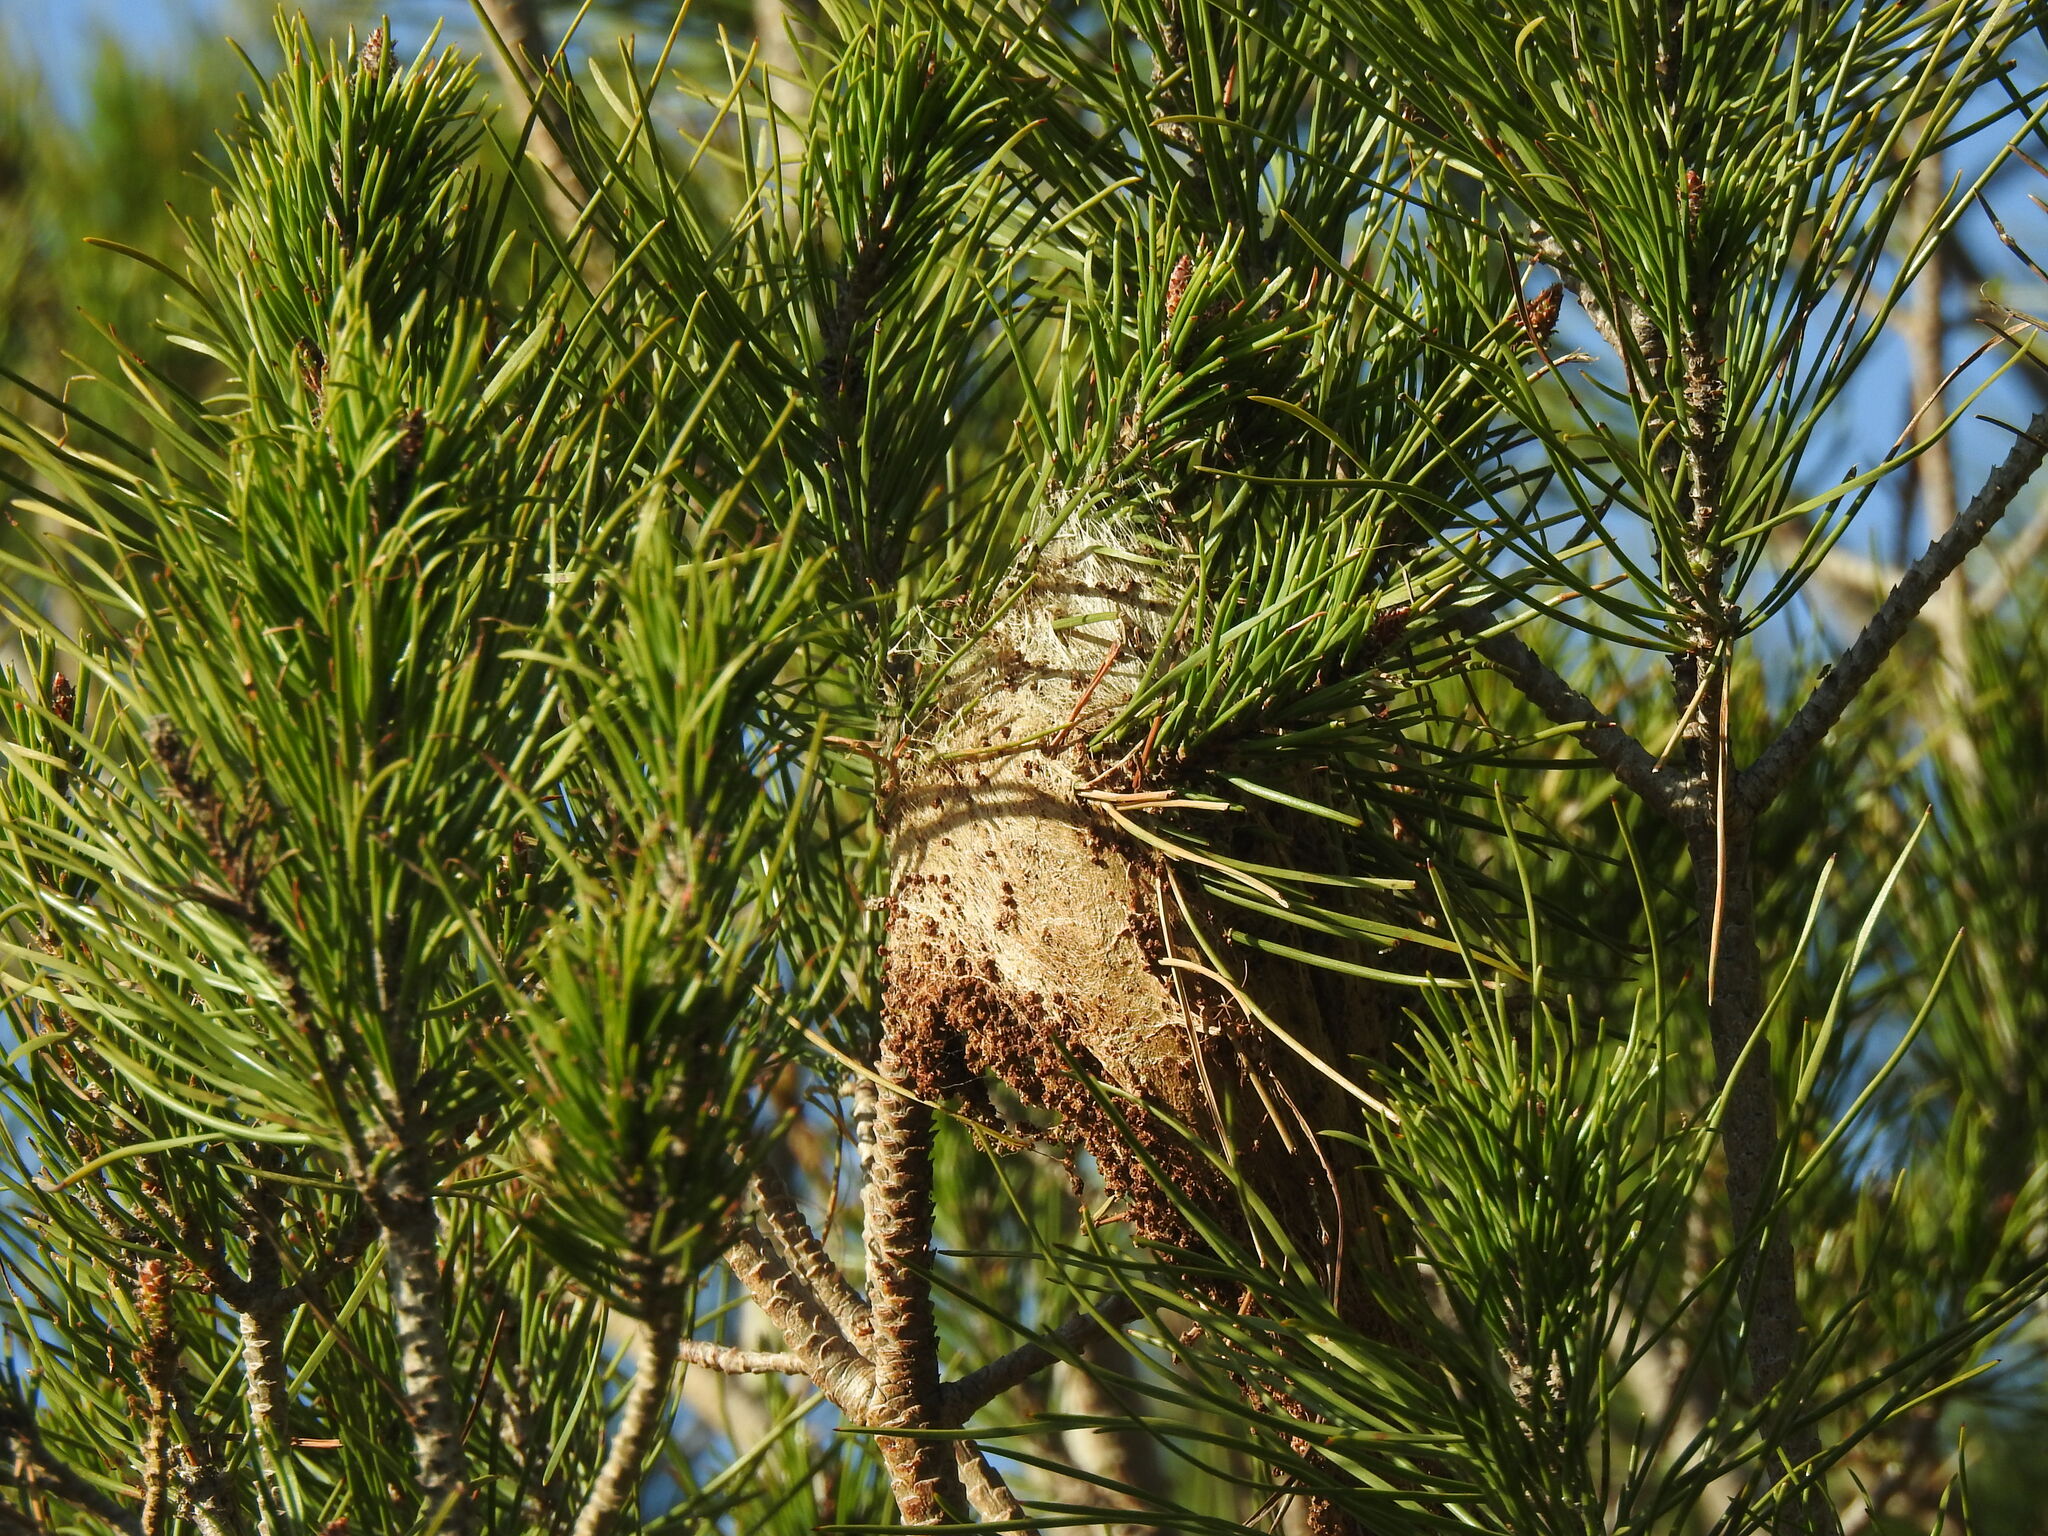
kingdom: Animalia
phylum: Arthropoda
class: Insecta
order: Lepidoptera
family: Notodontidae
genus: Thaumetopoea
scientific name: Thaumetopoea pityocampa
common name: Pine processionary
